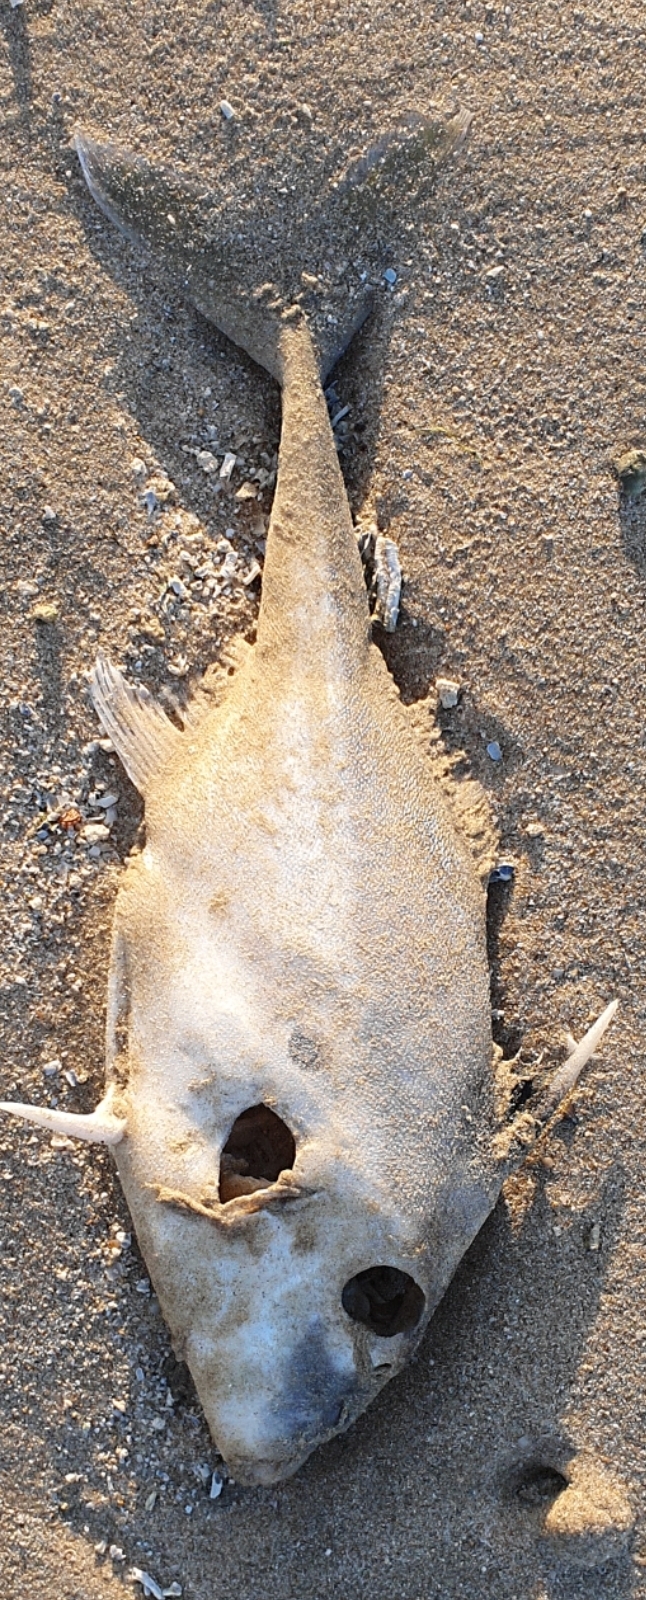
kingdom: Animalia
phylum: Chordata
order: Tetraodontiformes
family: Triacanthidae
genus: Triacanthus
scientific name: Triacanthus biaculeatus
